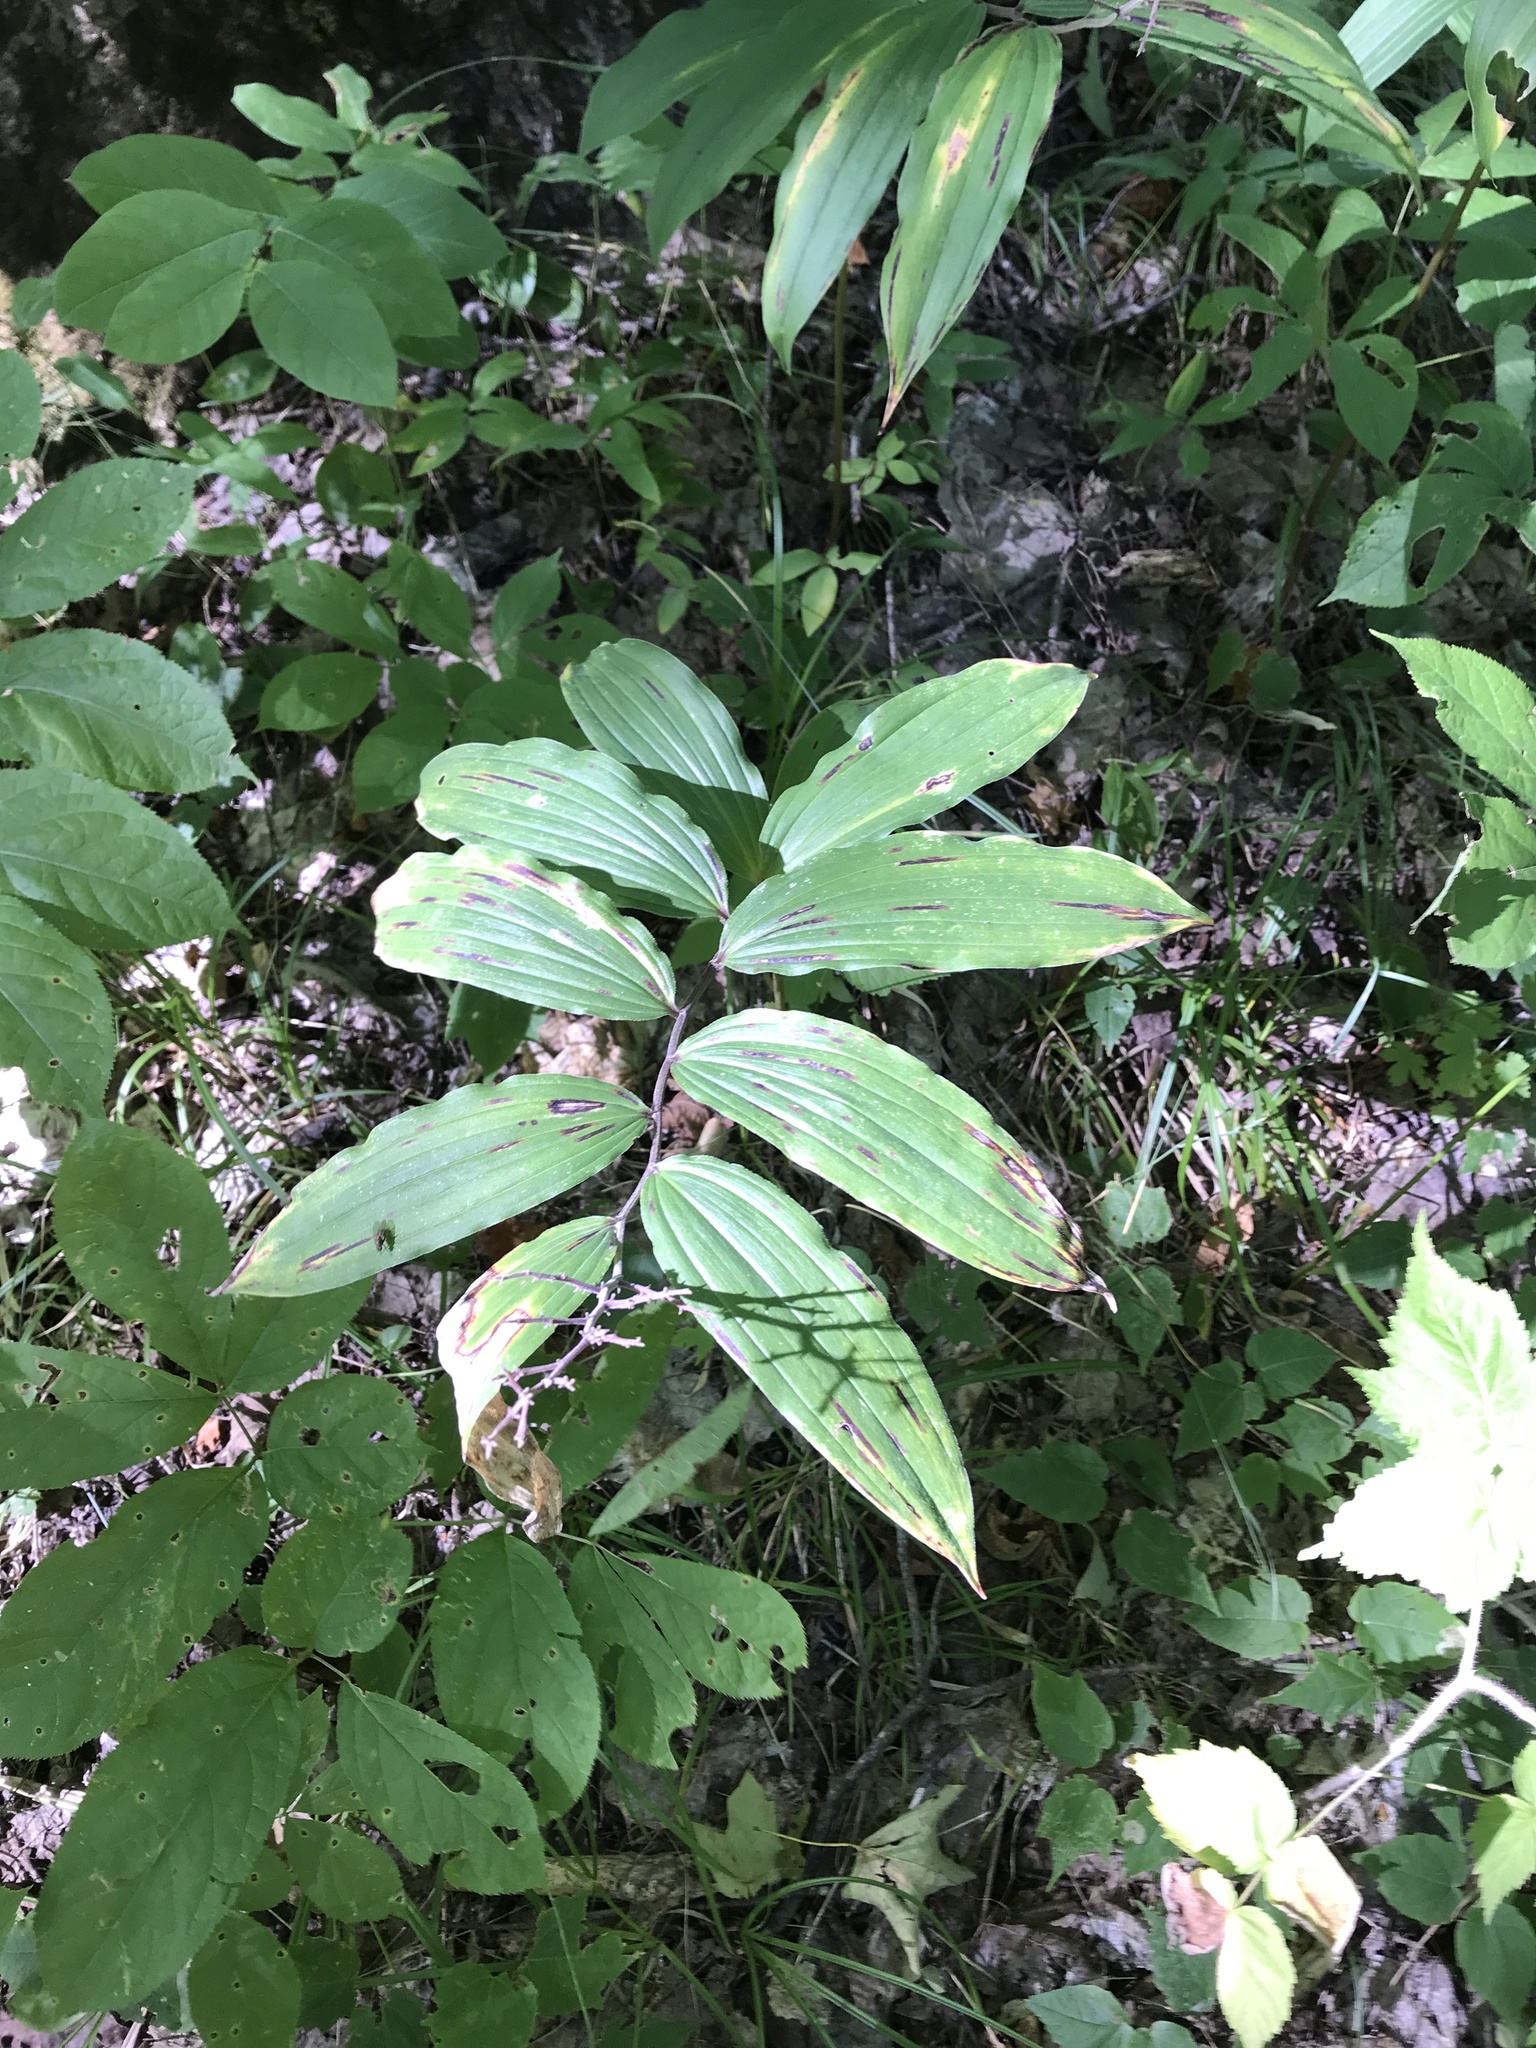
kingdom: Plantae
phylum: Tracheophyta
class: Liliopsida
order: Asparagales
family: Asparagaceae
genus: Maianthemum
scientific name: Maianthemum racemosum
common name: False spikenard
